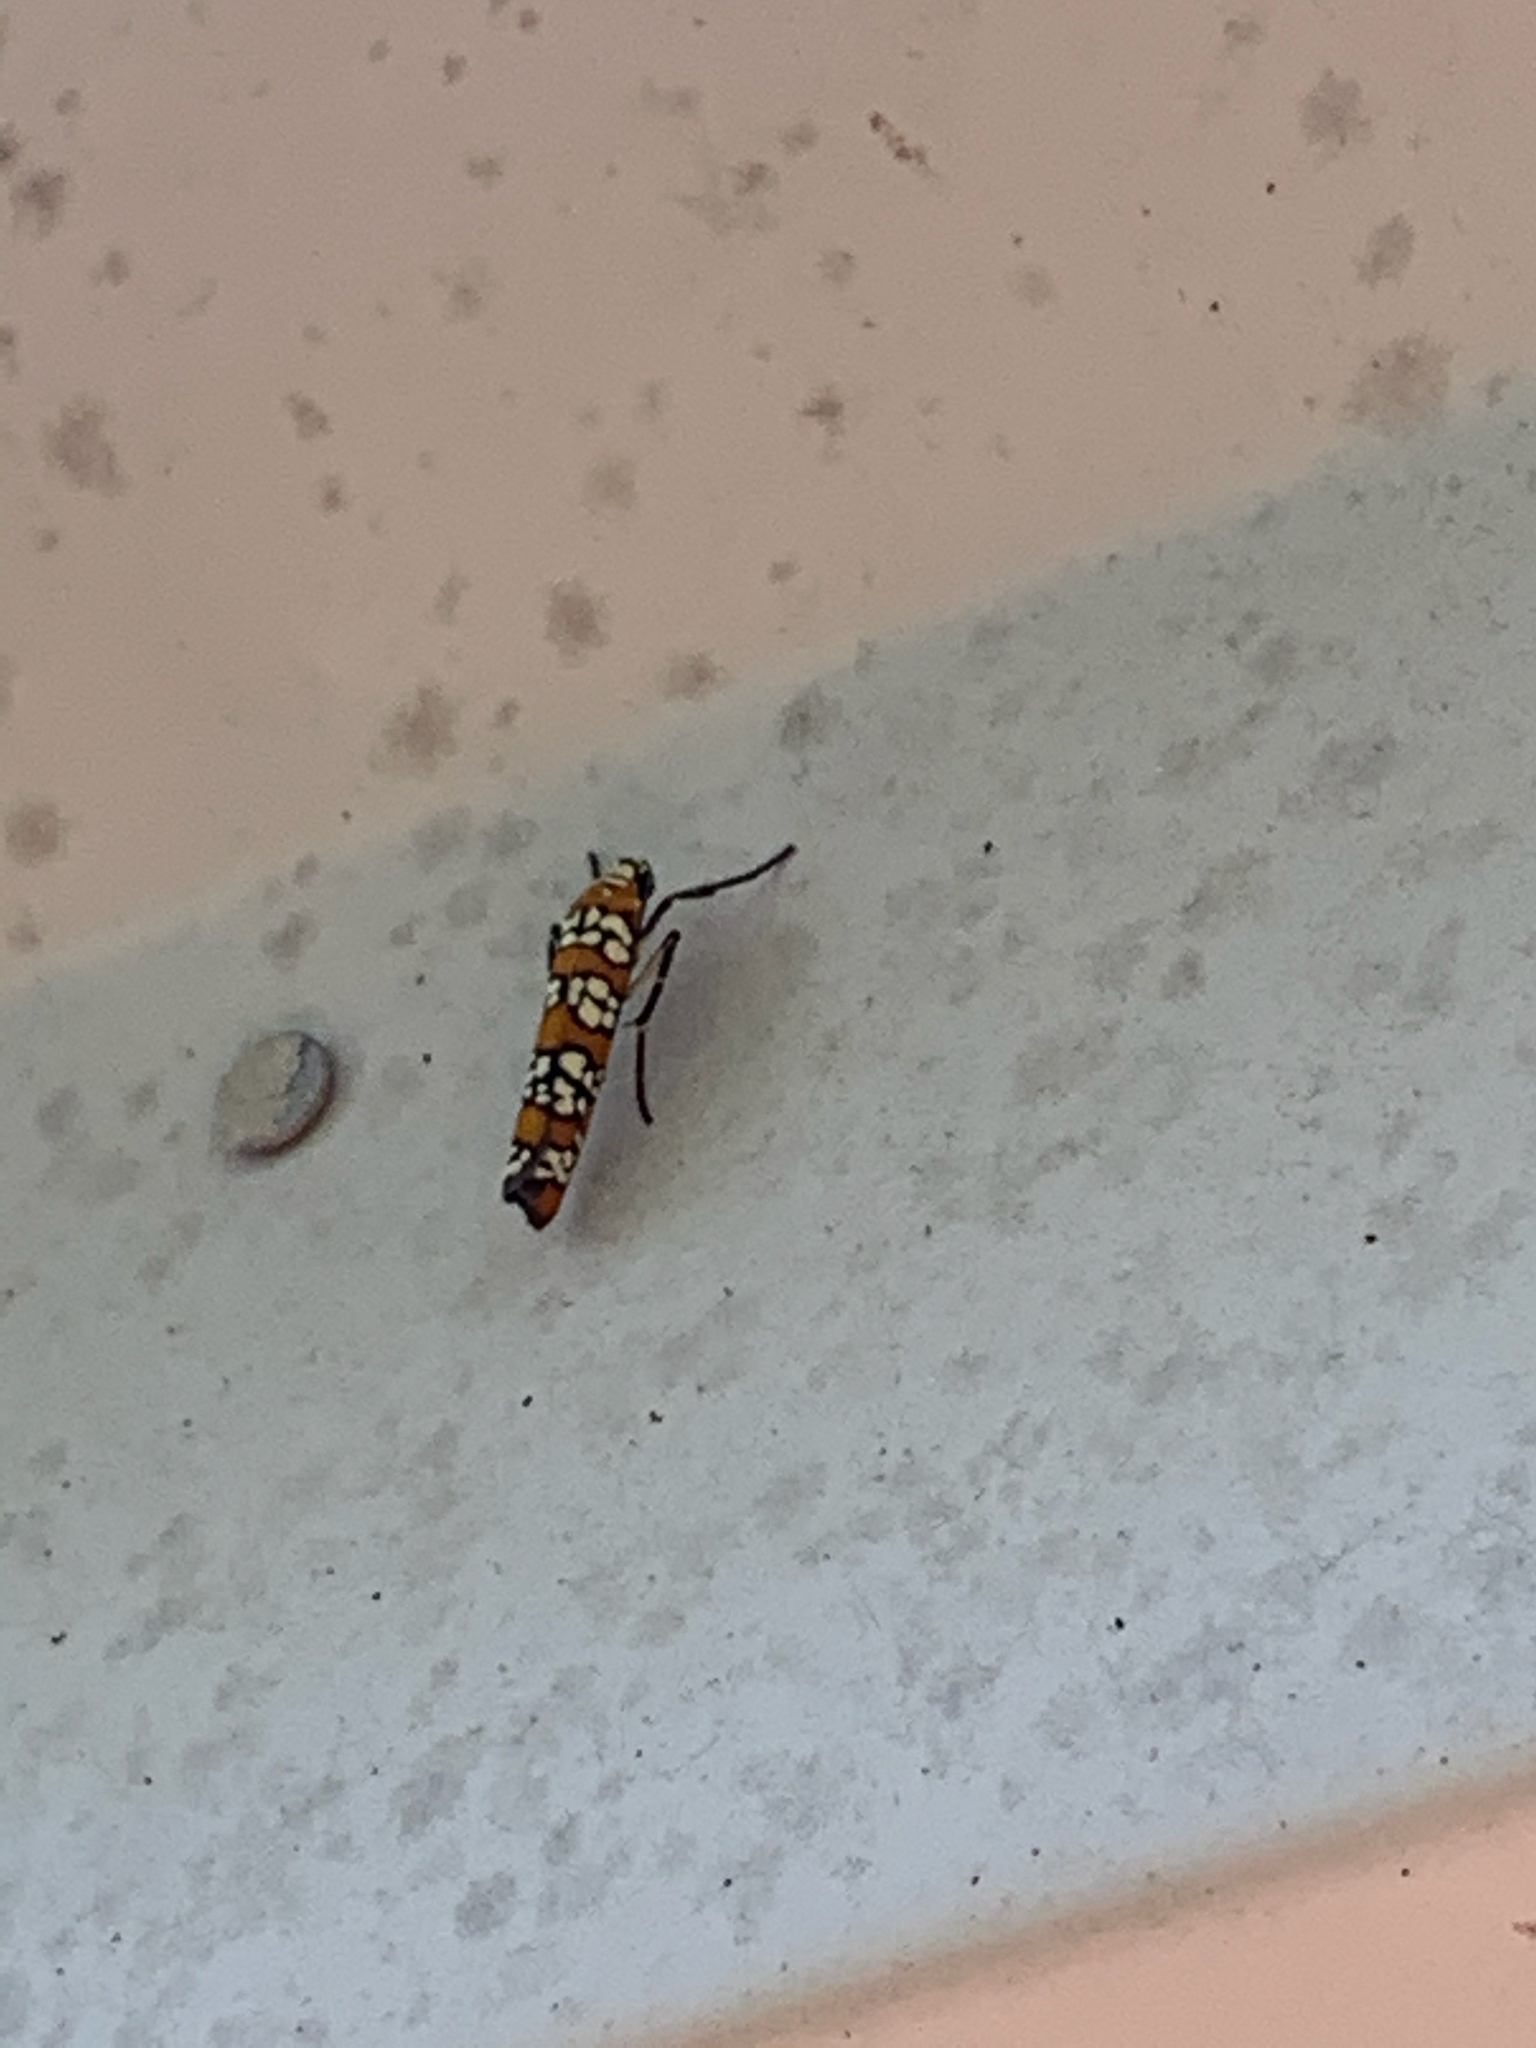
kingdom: Animalia
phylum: Arthropoda
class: Insecta
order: Lepidoptera
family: Attevidae
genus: Atteva
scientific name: Atteva punctella
